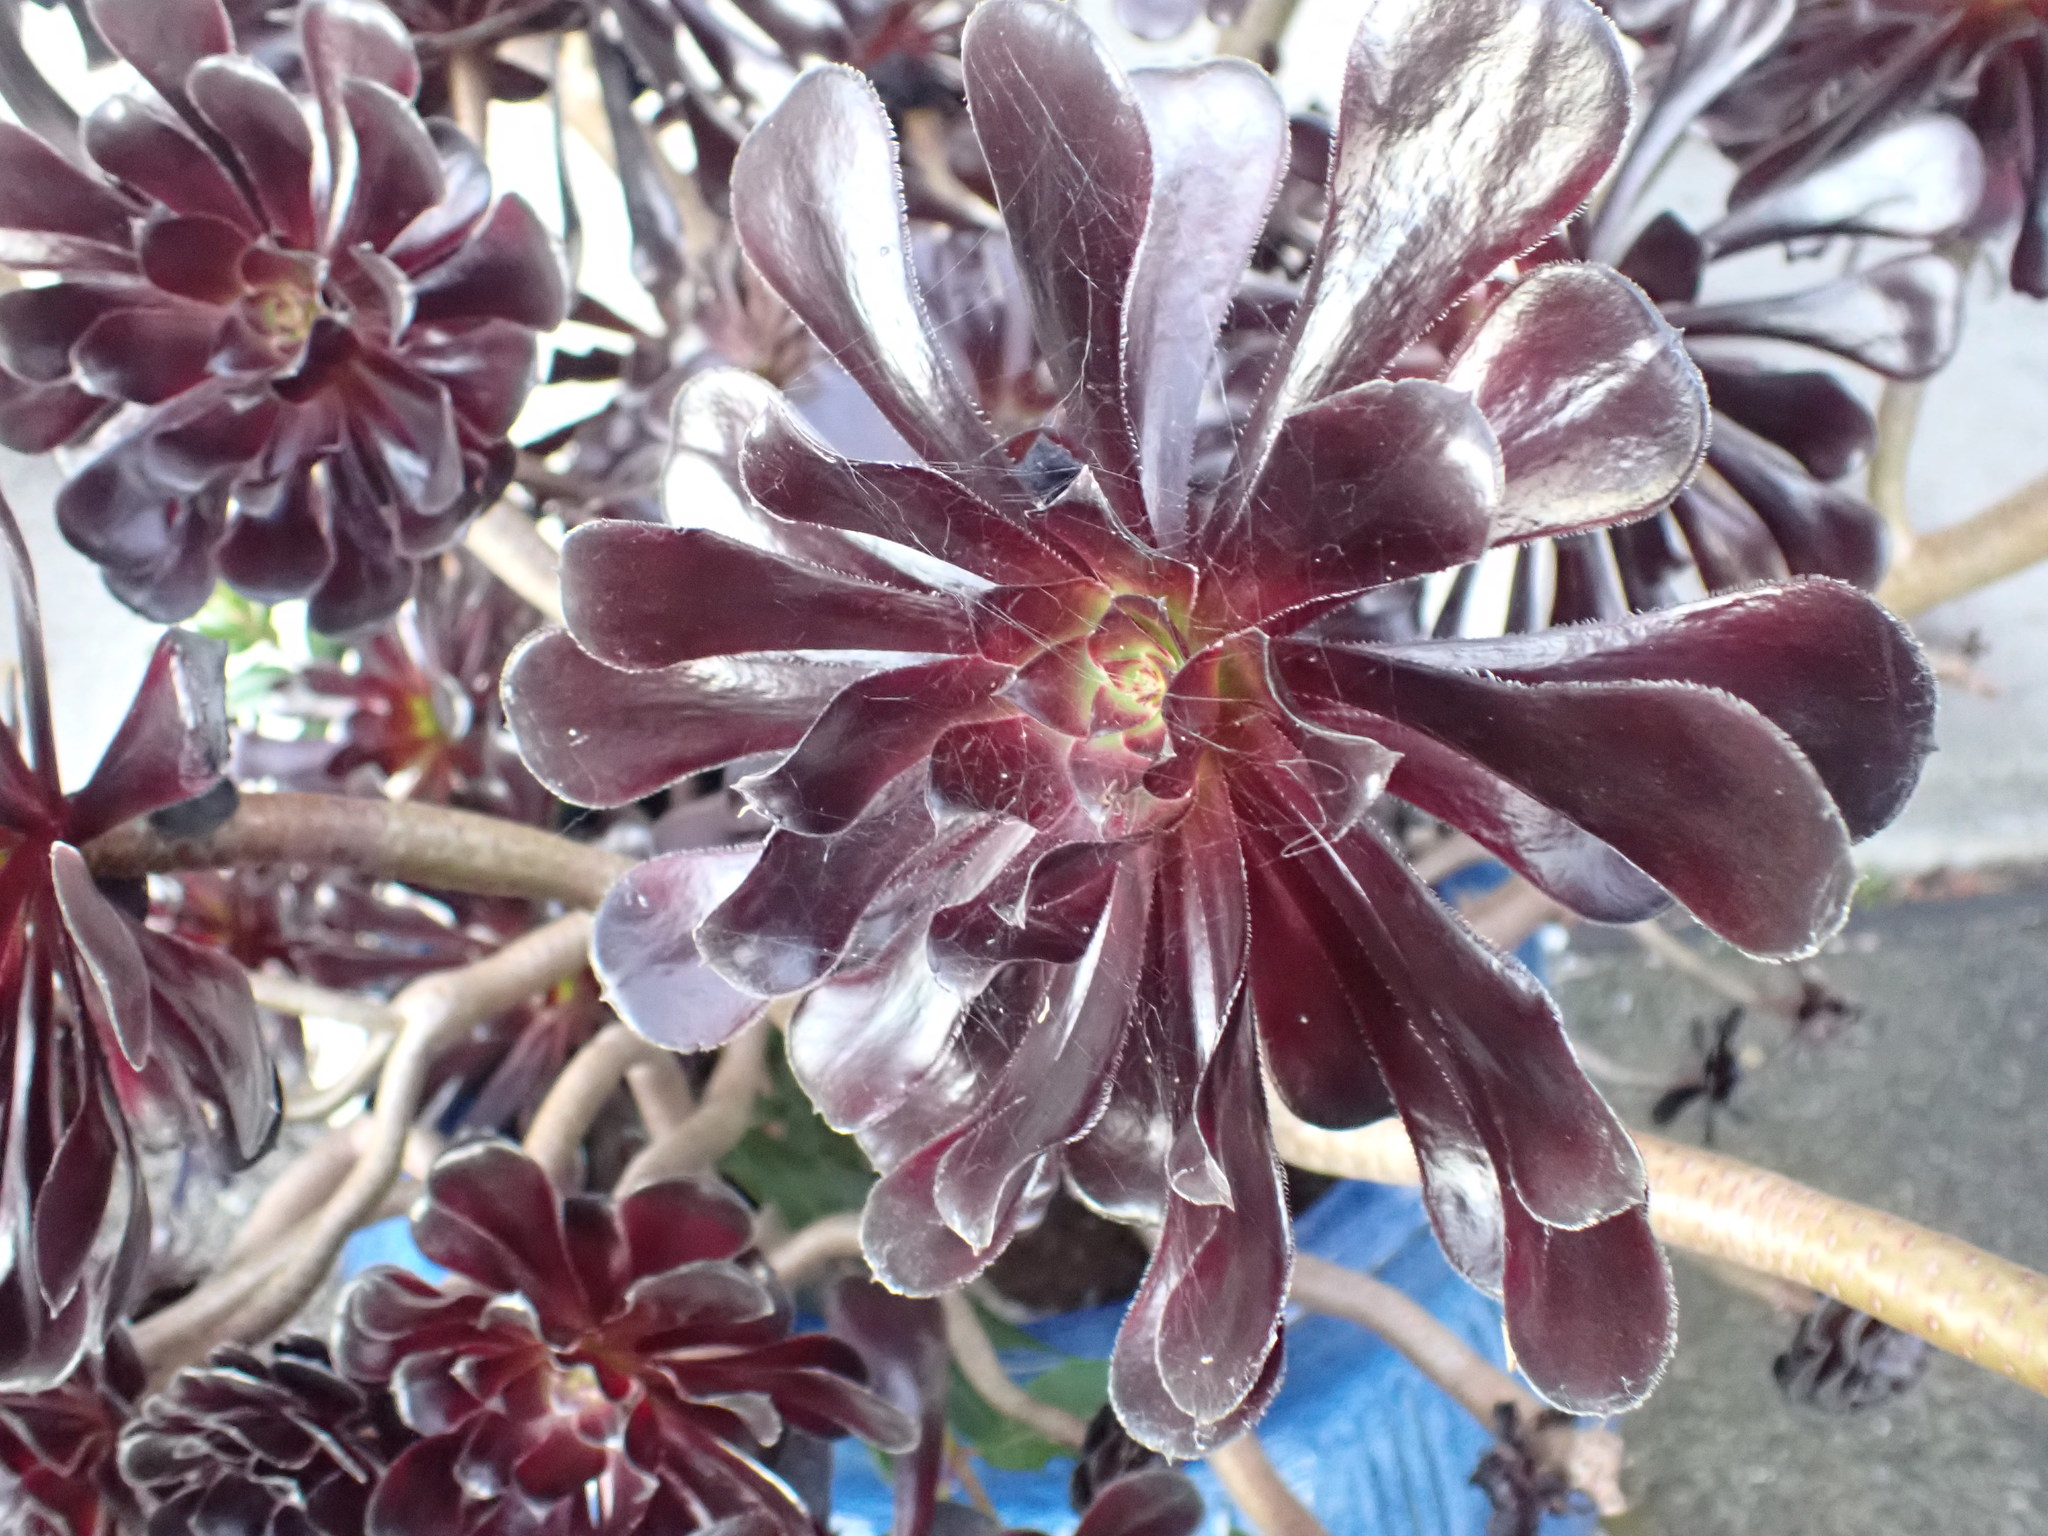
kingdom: Plantae
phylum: Tracheophyta
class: Magnoliopsida
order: Saxifragales
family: Crassulaceae
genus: Aeonium
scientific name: Aeonium arboreum
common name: Tree aeonium
